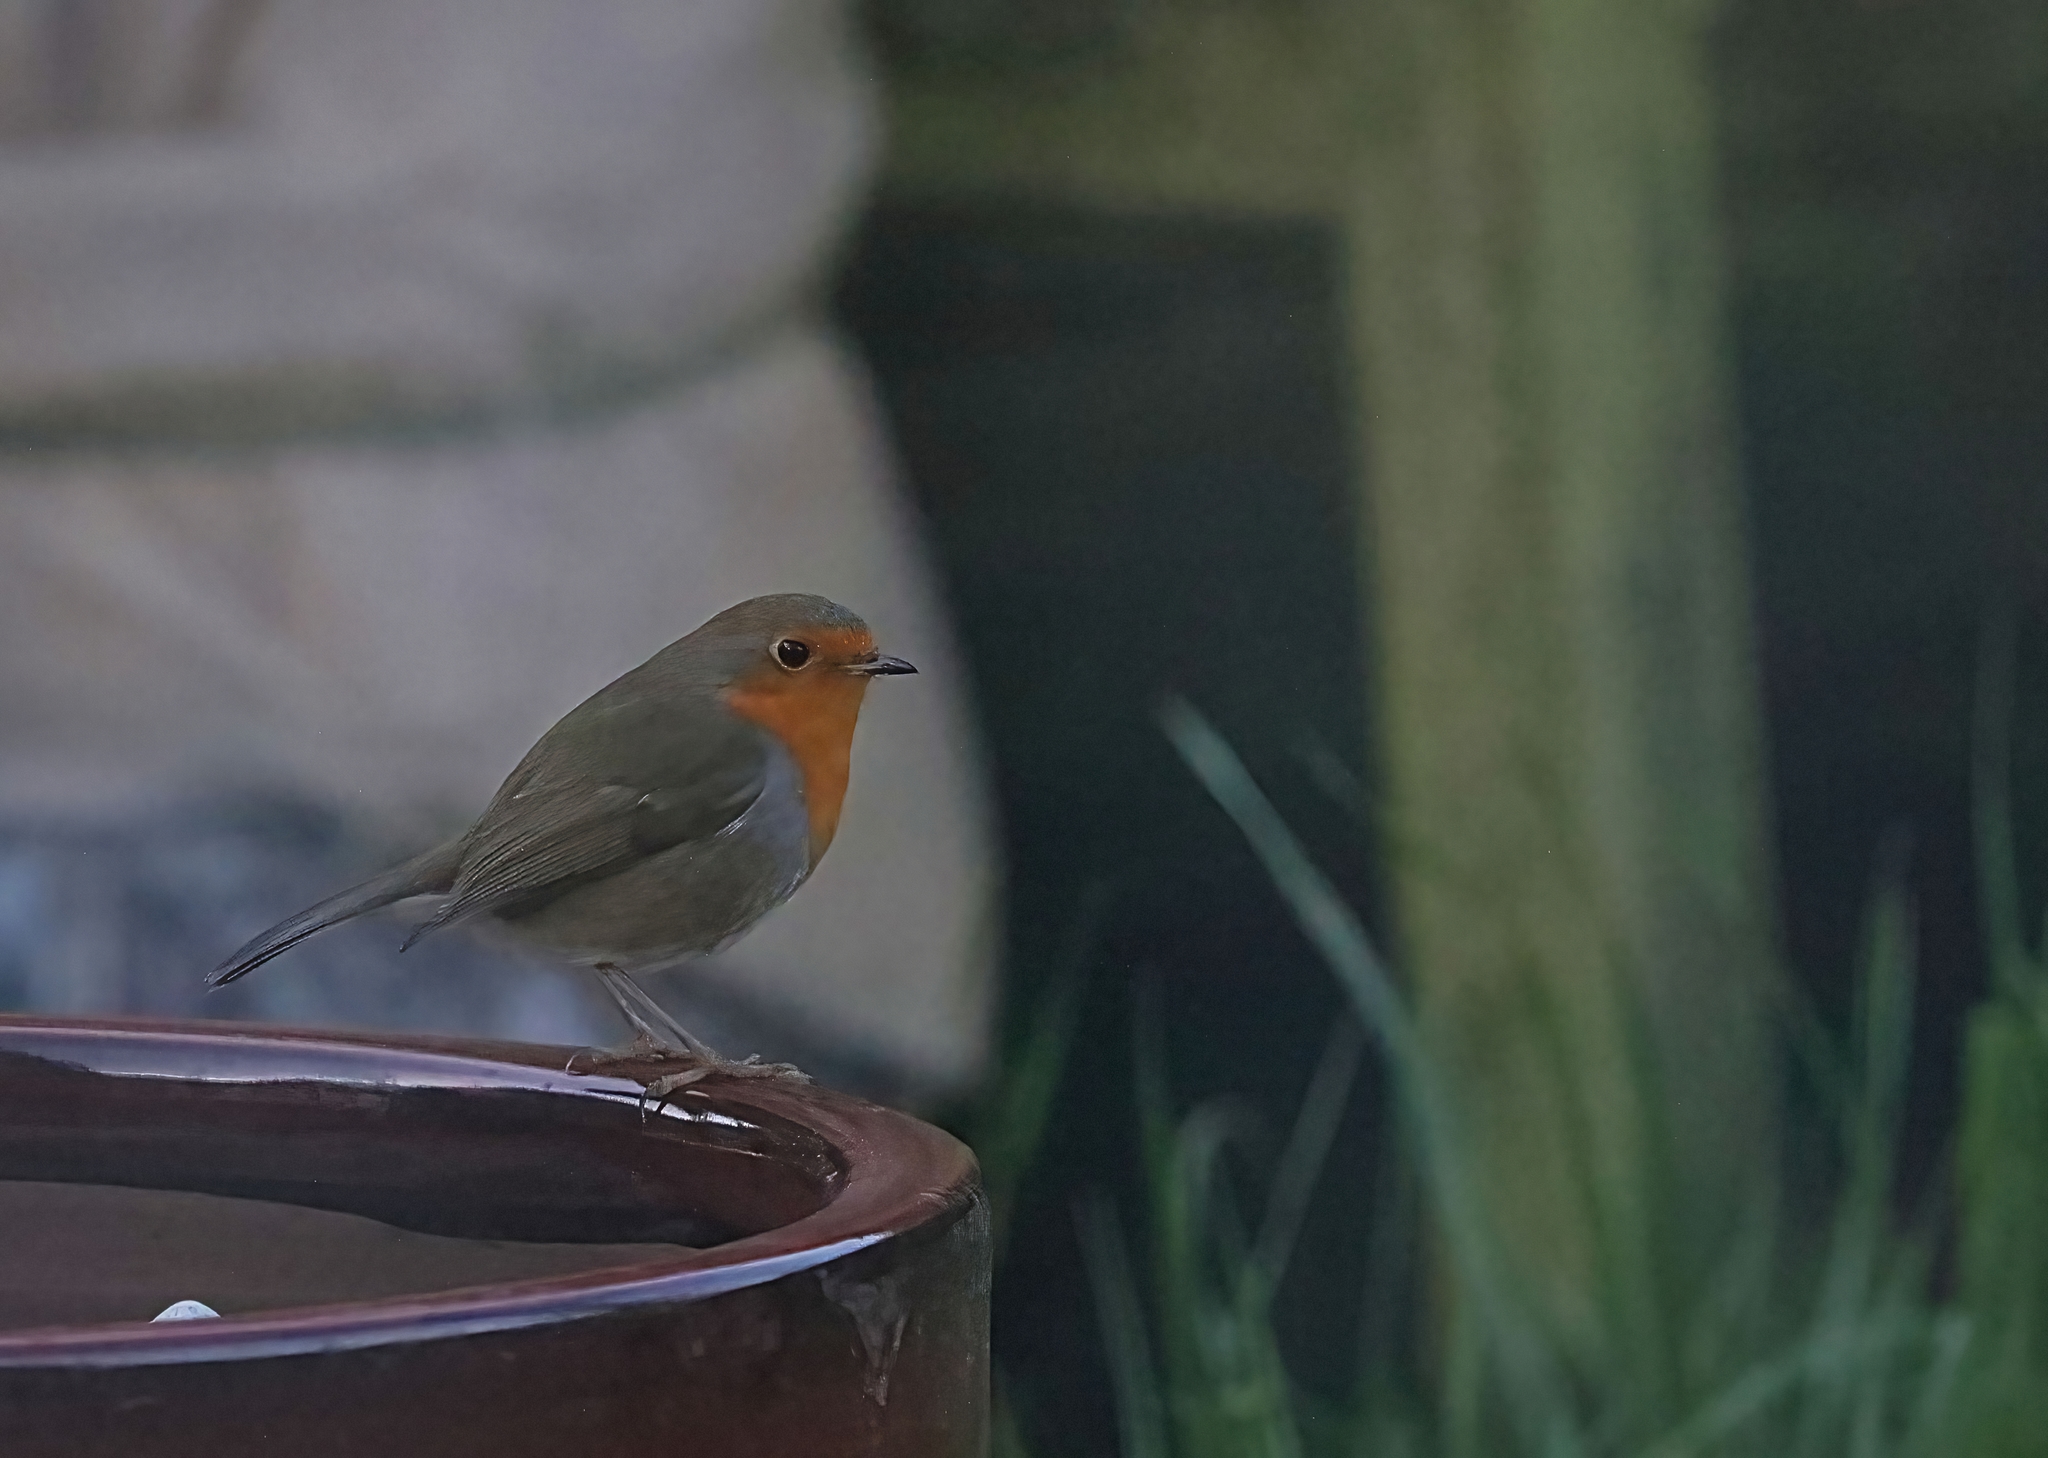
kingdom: Animalia
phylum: Chordata
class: Aves
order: Passeriformes
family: Muscicapidae
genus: Erithacus
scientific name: Erithacus rubecula
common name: European robin
